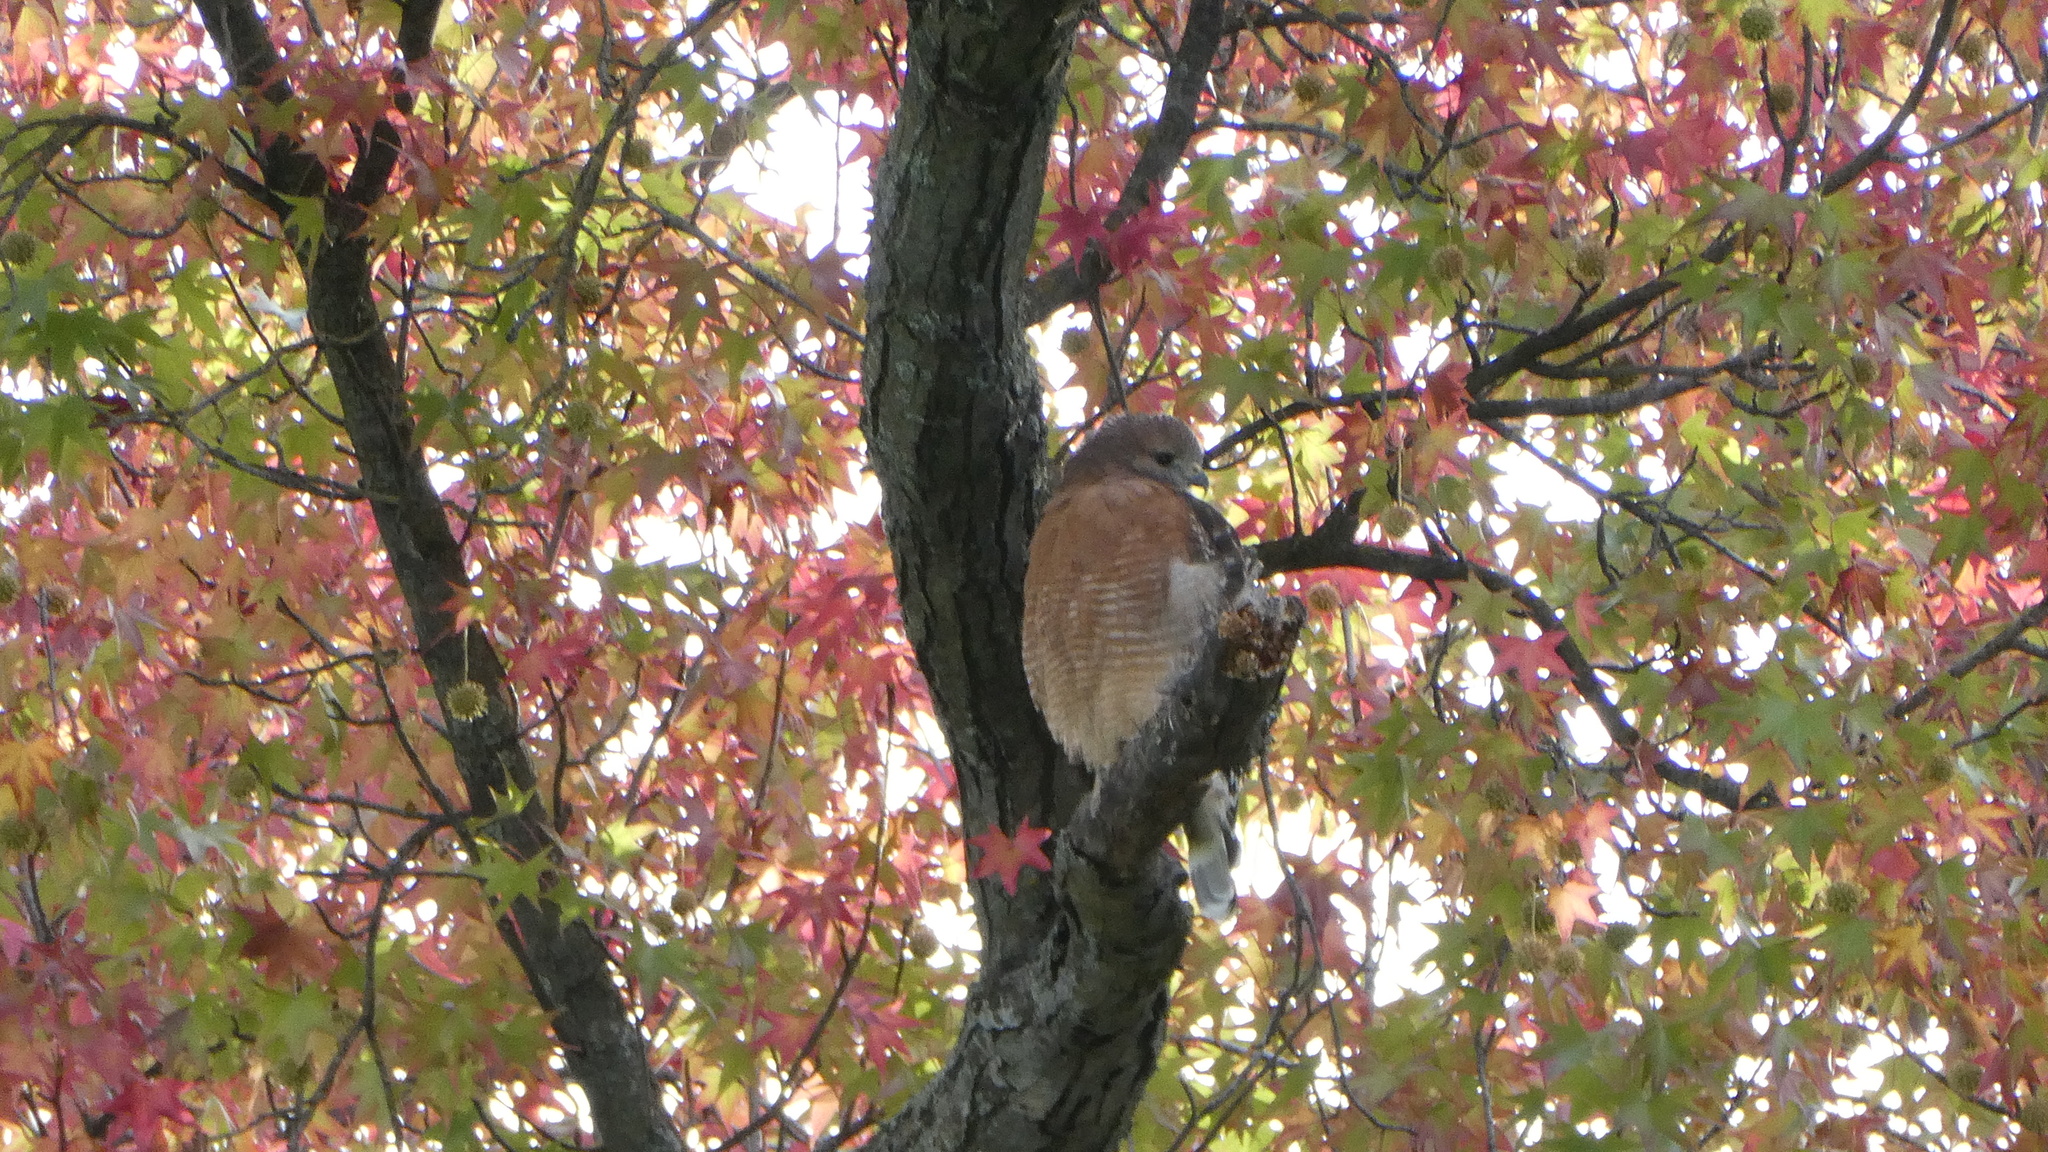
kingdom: Animalia
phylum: Chordata
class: Aves
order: Accipitriformes
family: Accipitridae
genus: Buteo
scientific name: Buteo lineatus
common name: Red-shouldered hawk
